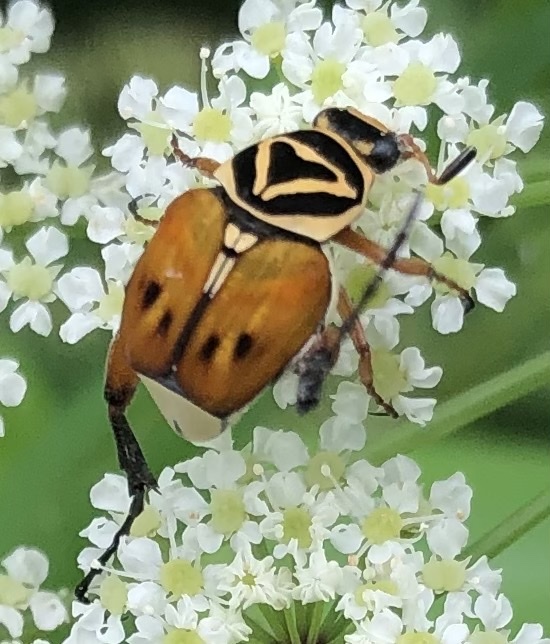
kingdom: Animalia
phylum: Arthropoda
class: Insecta
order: Coleoptera
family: Scarabaeidae
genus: Trigonopeltastes
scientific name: Trigonopeltastes delta
